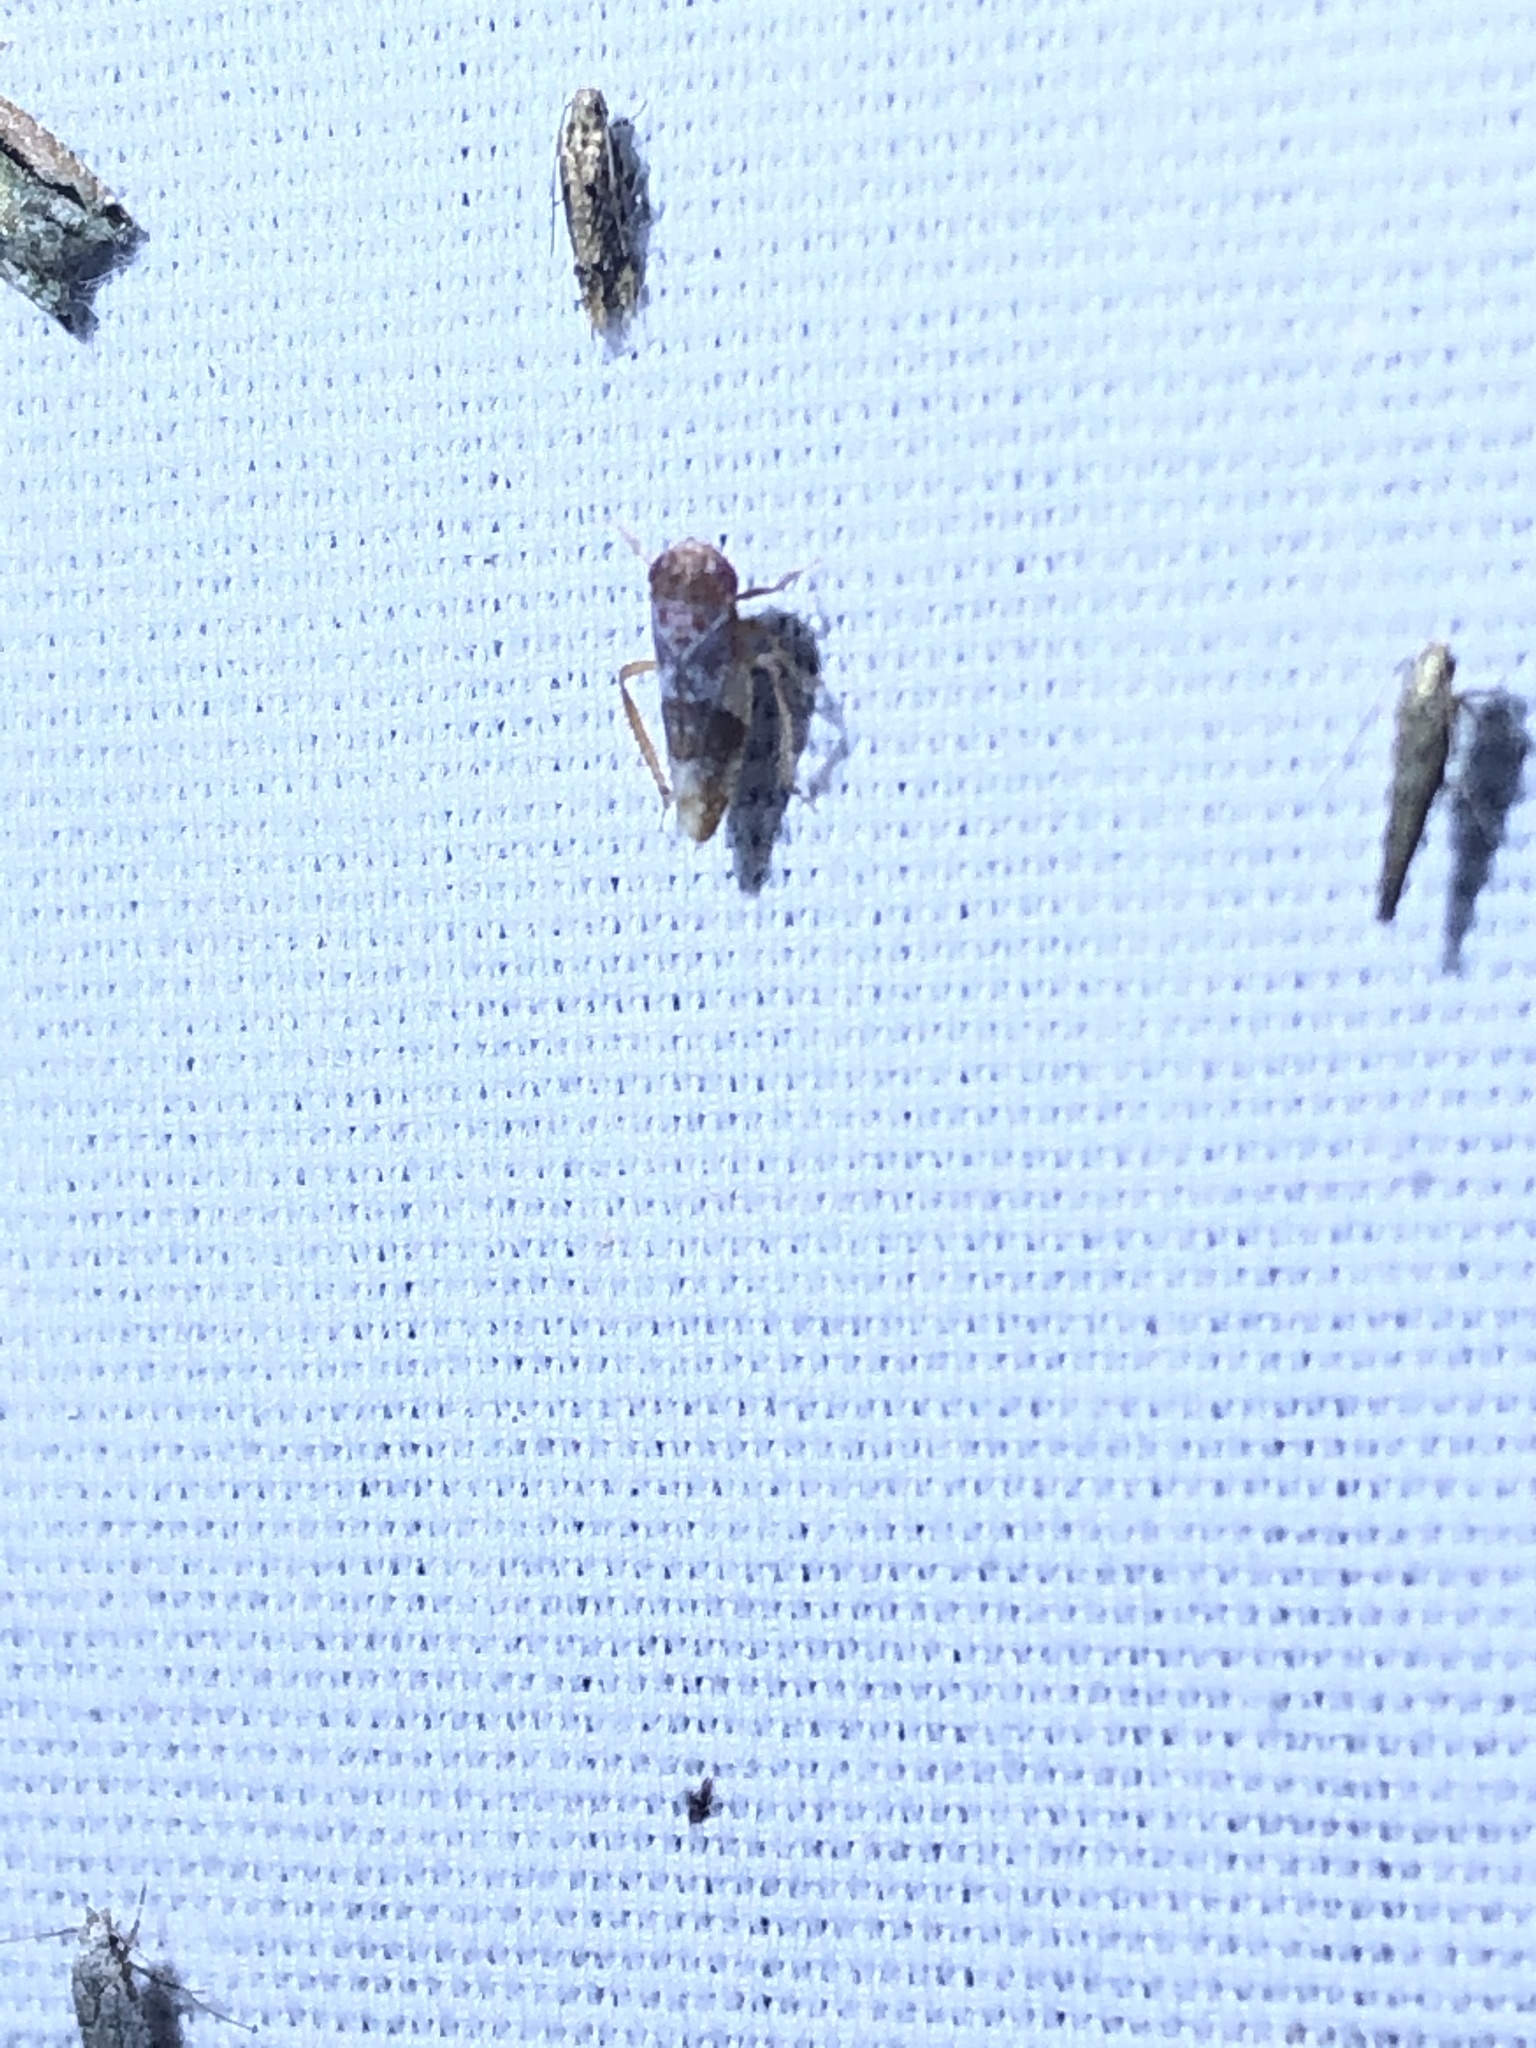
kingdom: Animalia
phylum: Arthropoda
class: Insecta
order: Hemiptera
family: Cicadellidae
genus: Norvellina
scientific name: Norvellina helenae
